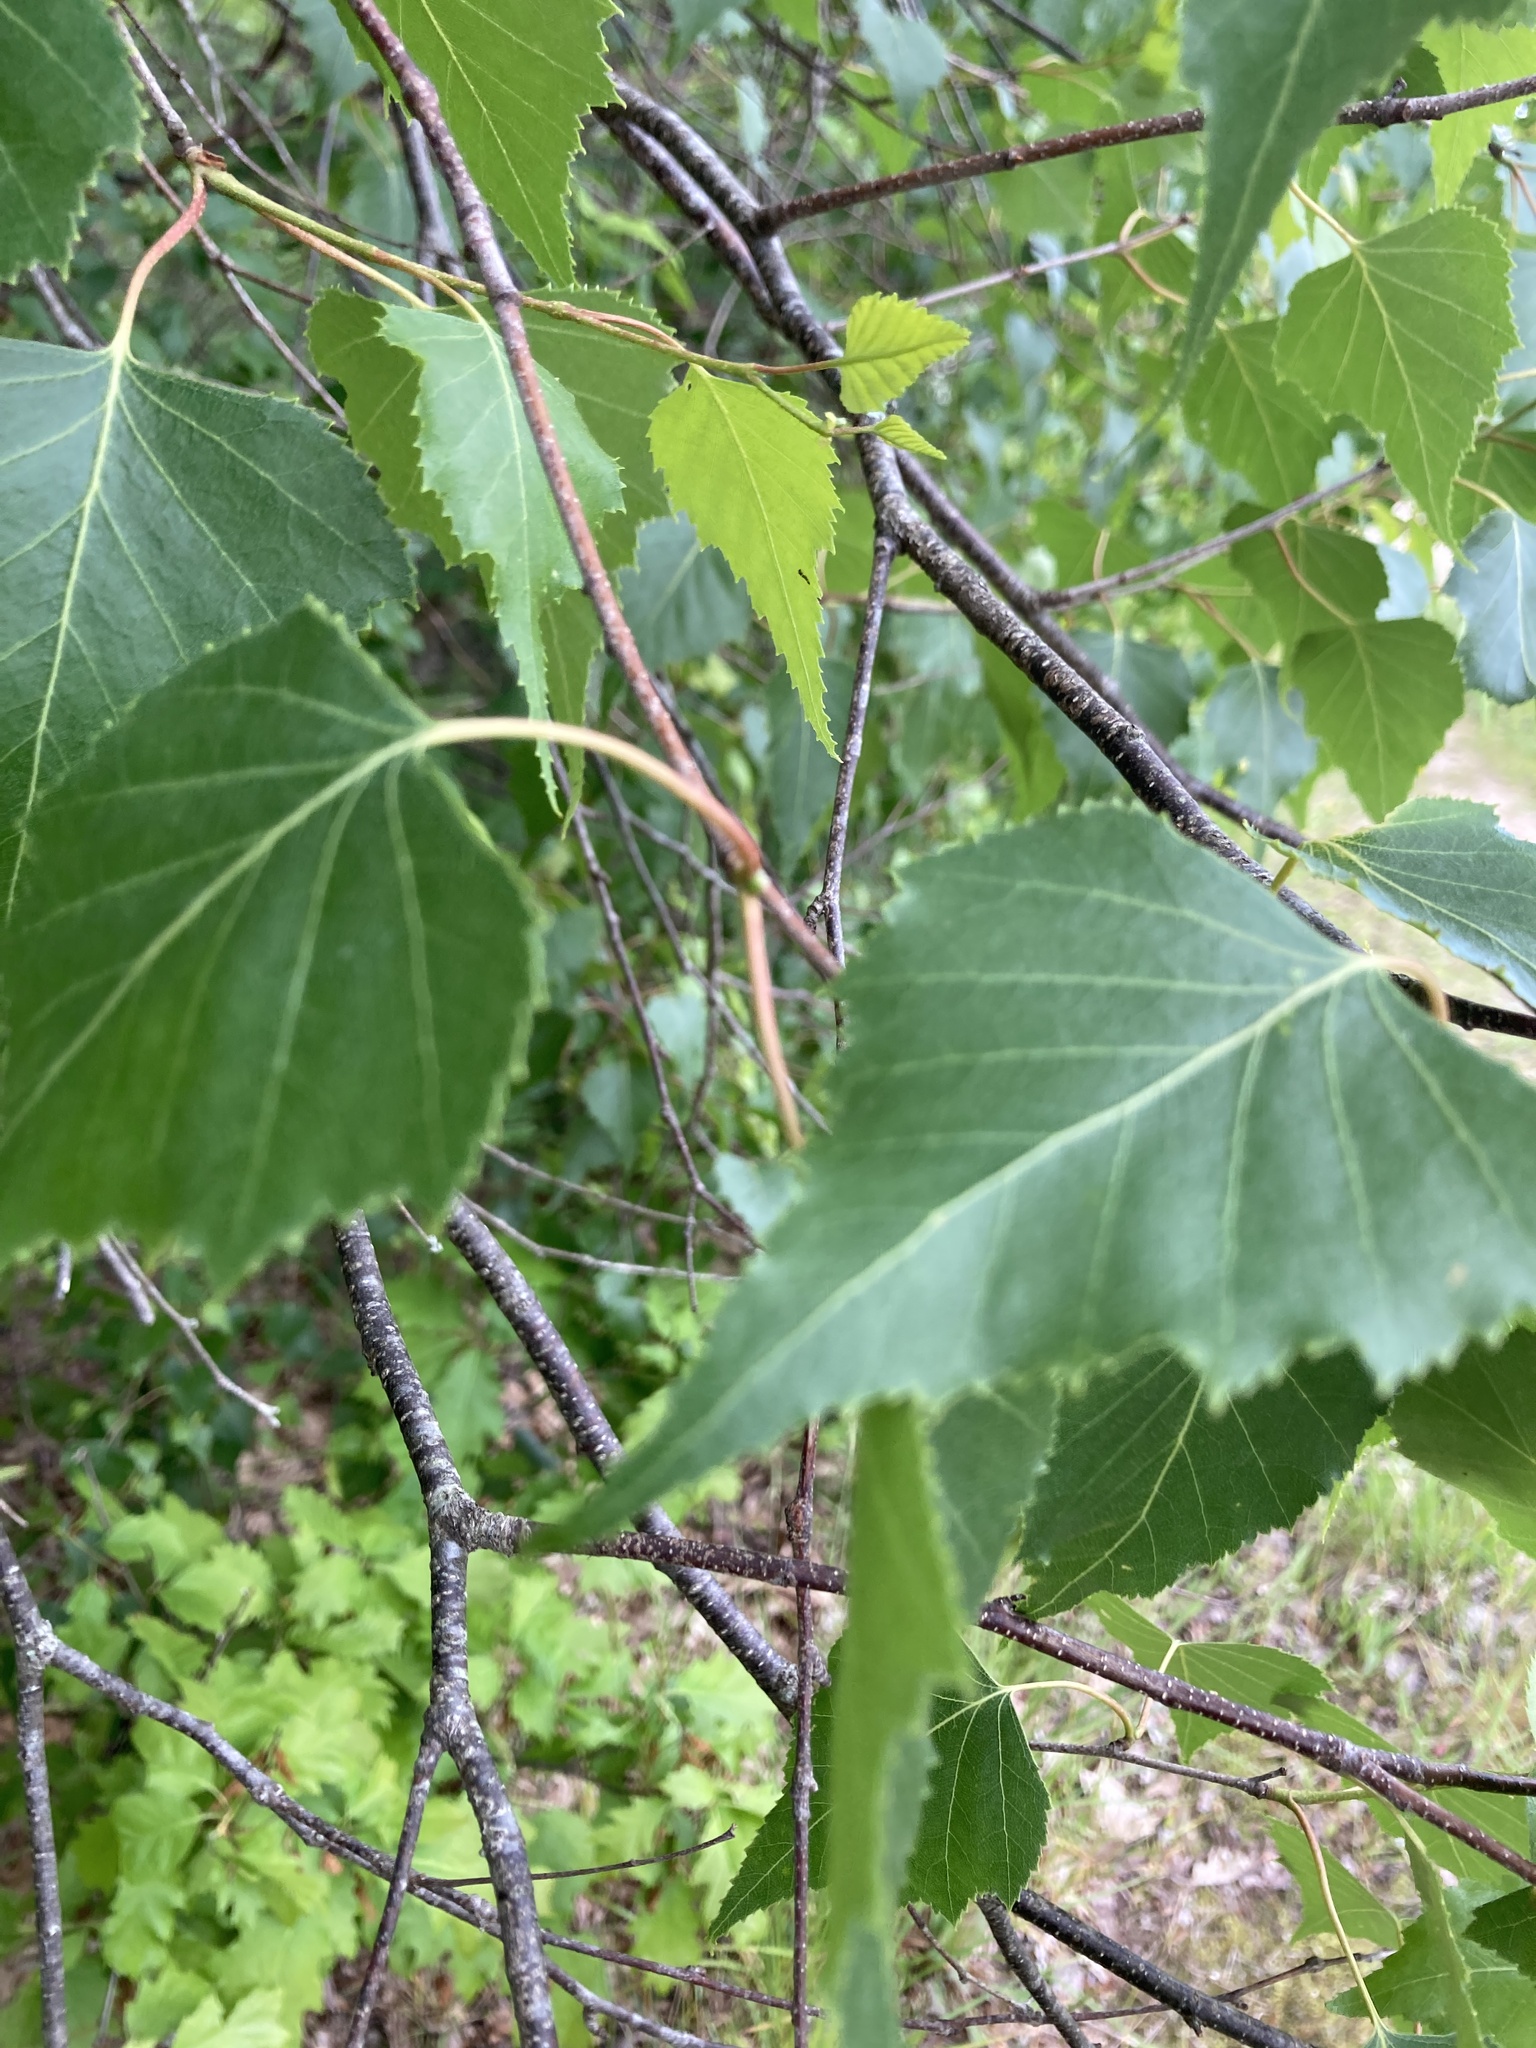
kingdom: Plantae
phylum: Tracheophyta
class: Magnoliopsida
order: Fagales
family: Betulaceae
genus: Betula
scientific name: Betula populifolia
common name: Fire birch
